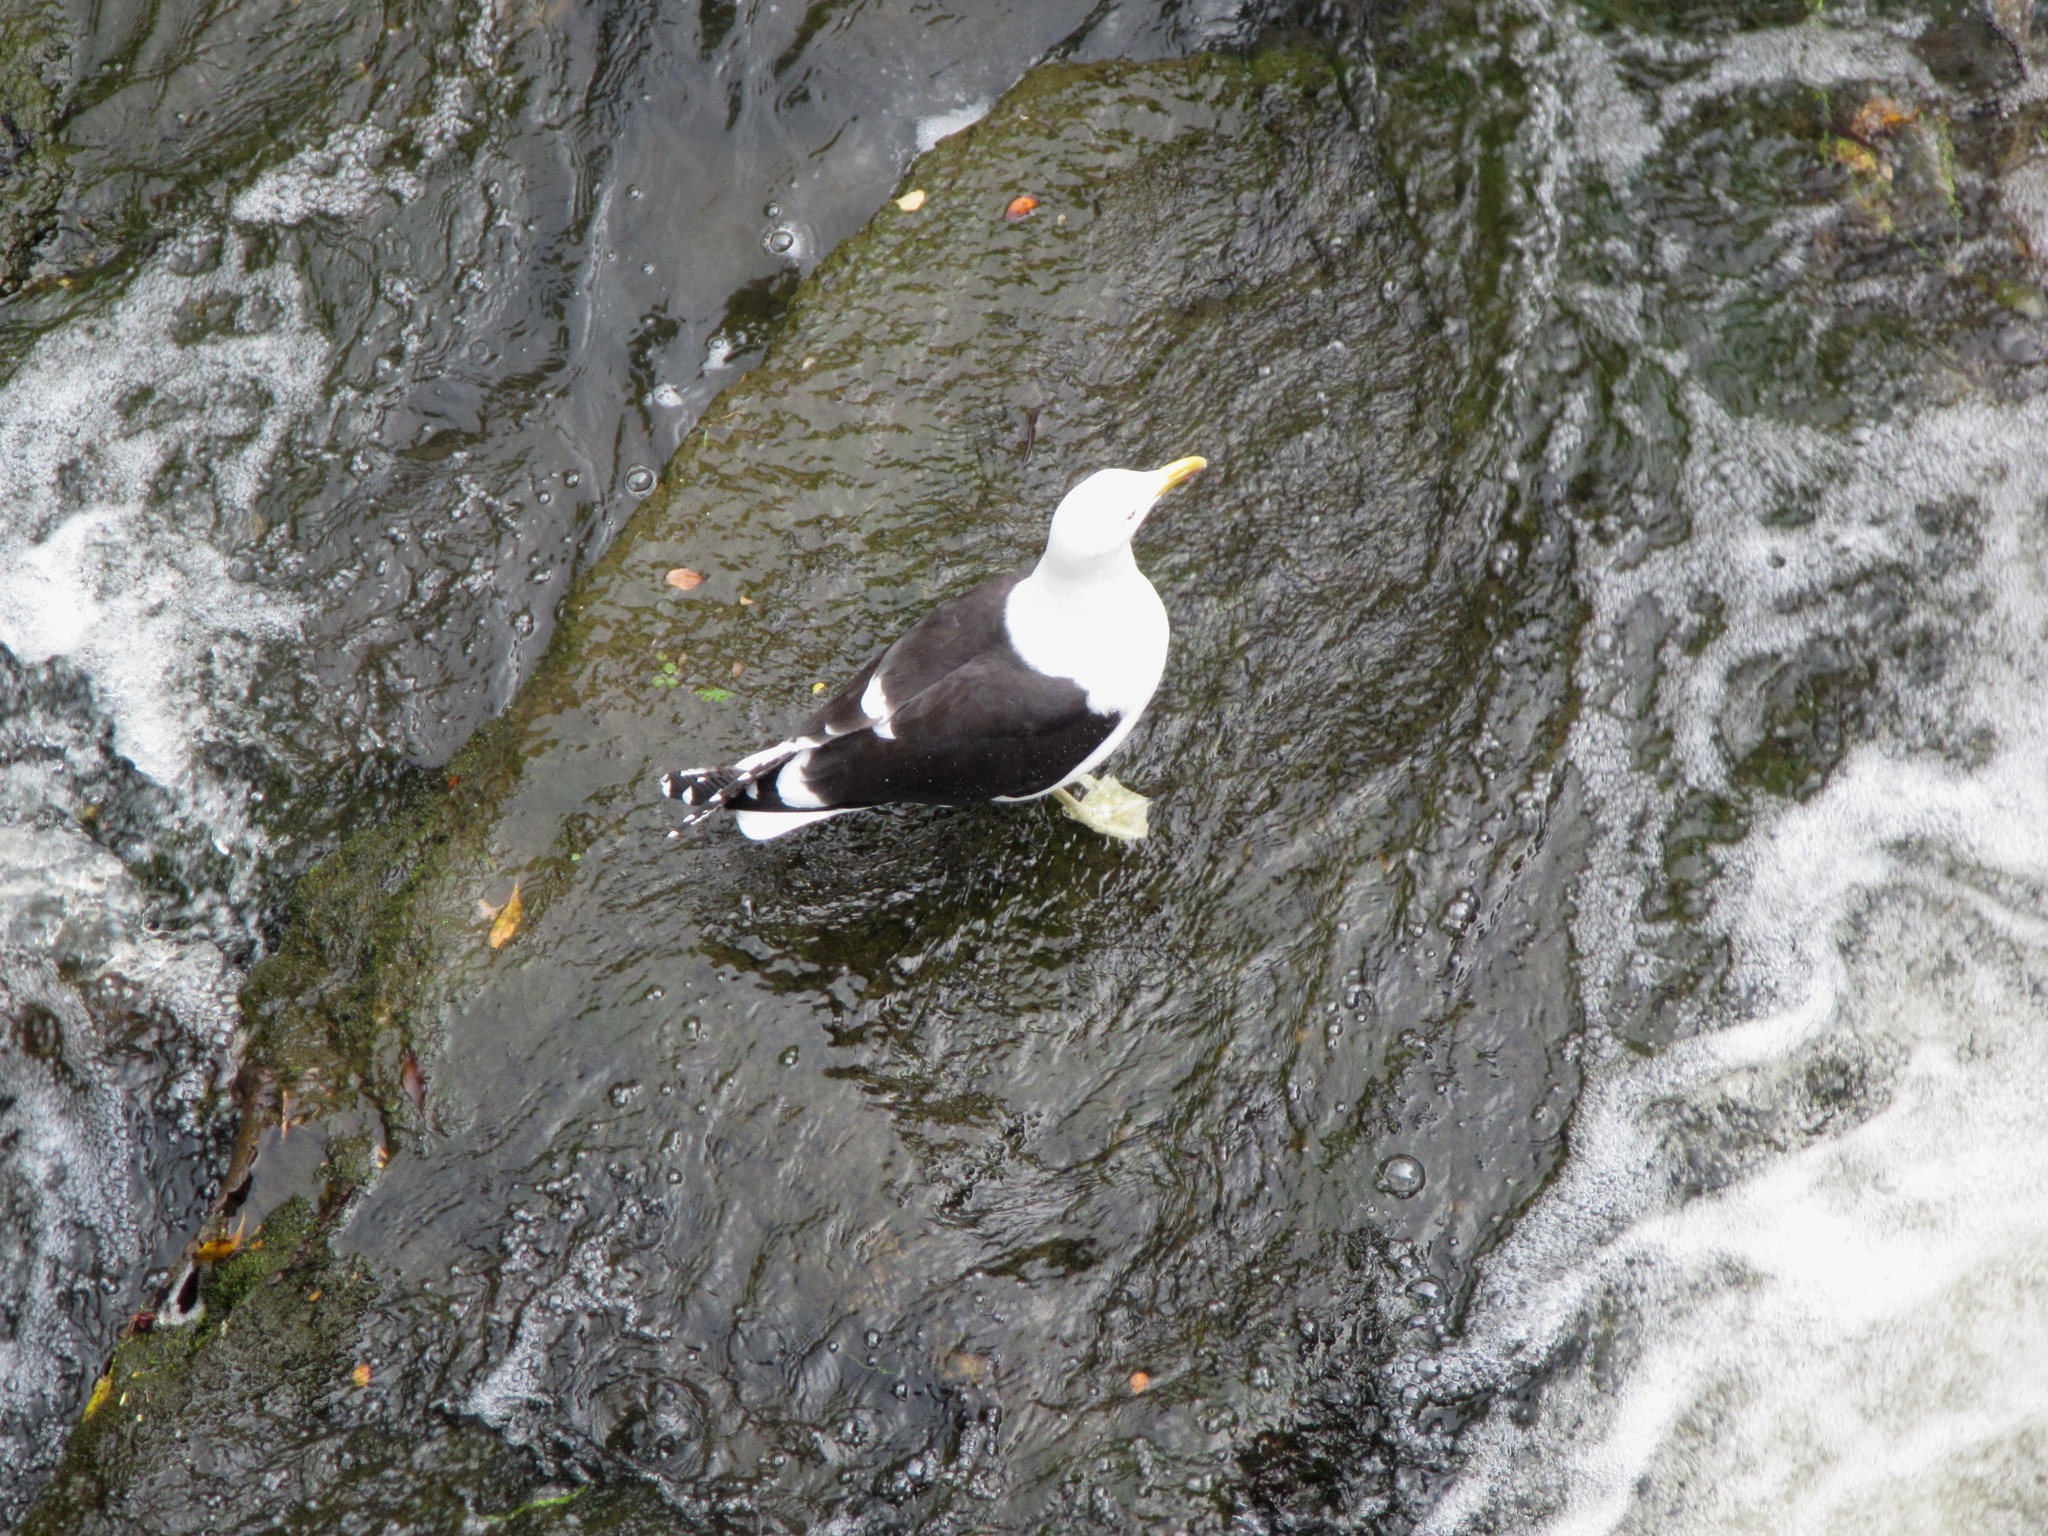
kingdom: Animalia
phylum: Chordata
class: Aves
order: Charadriiformes
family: Laridae
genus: Larus
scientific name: Larus dominicanus
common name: Kelp gull
